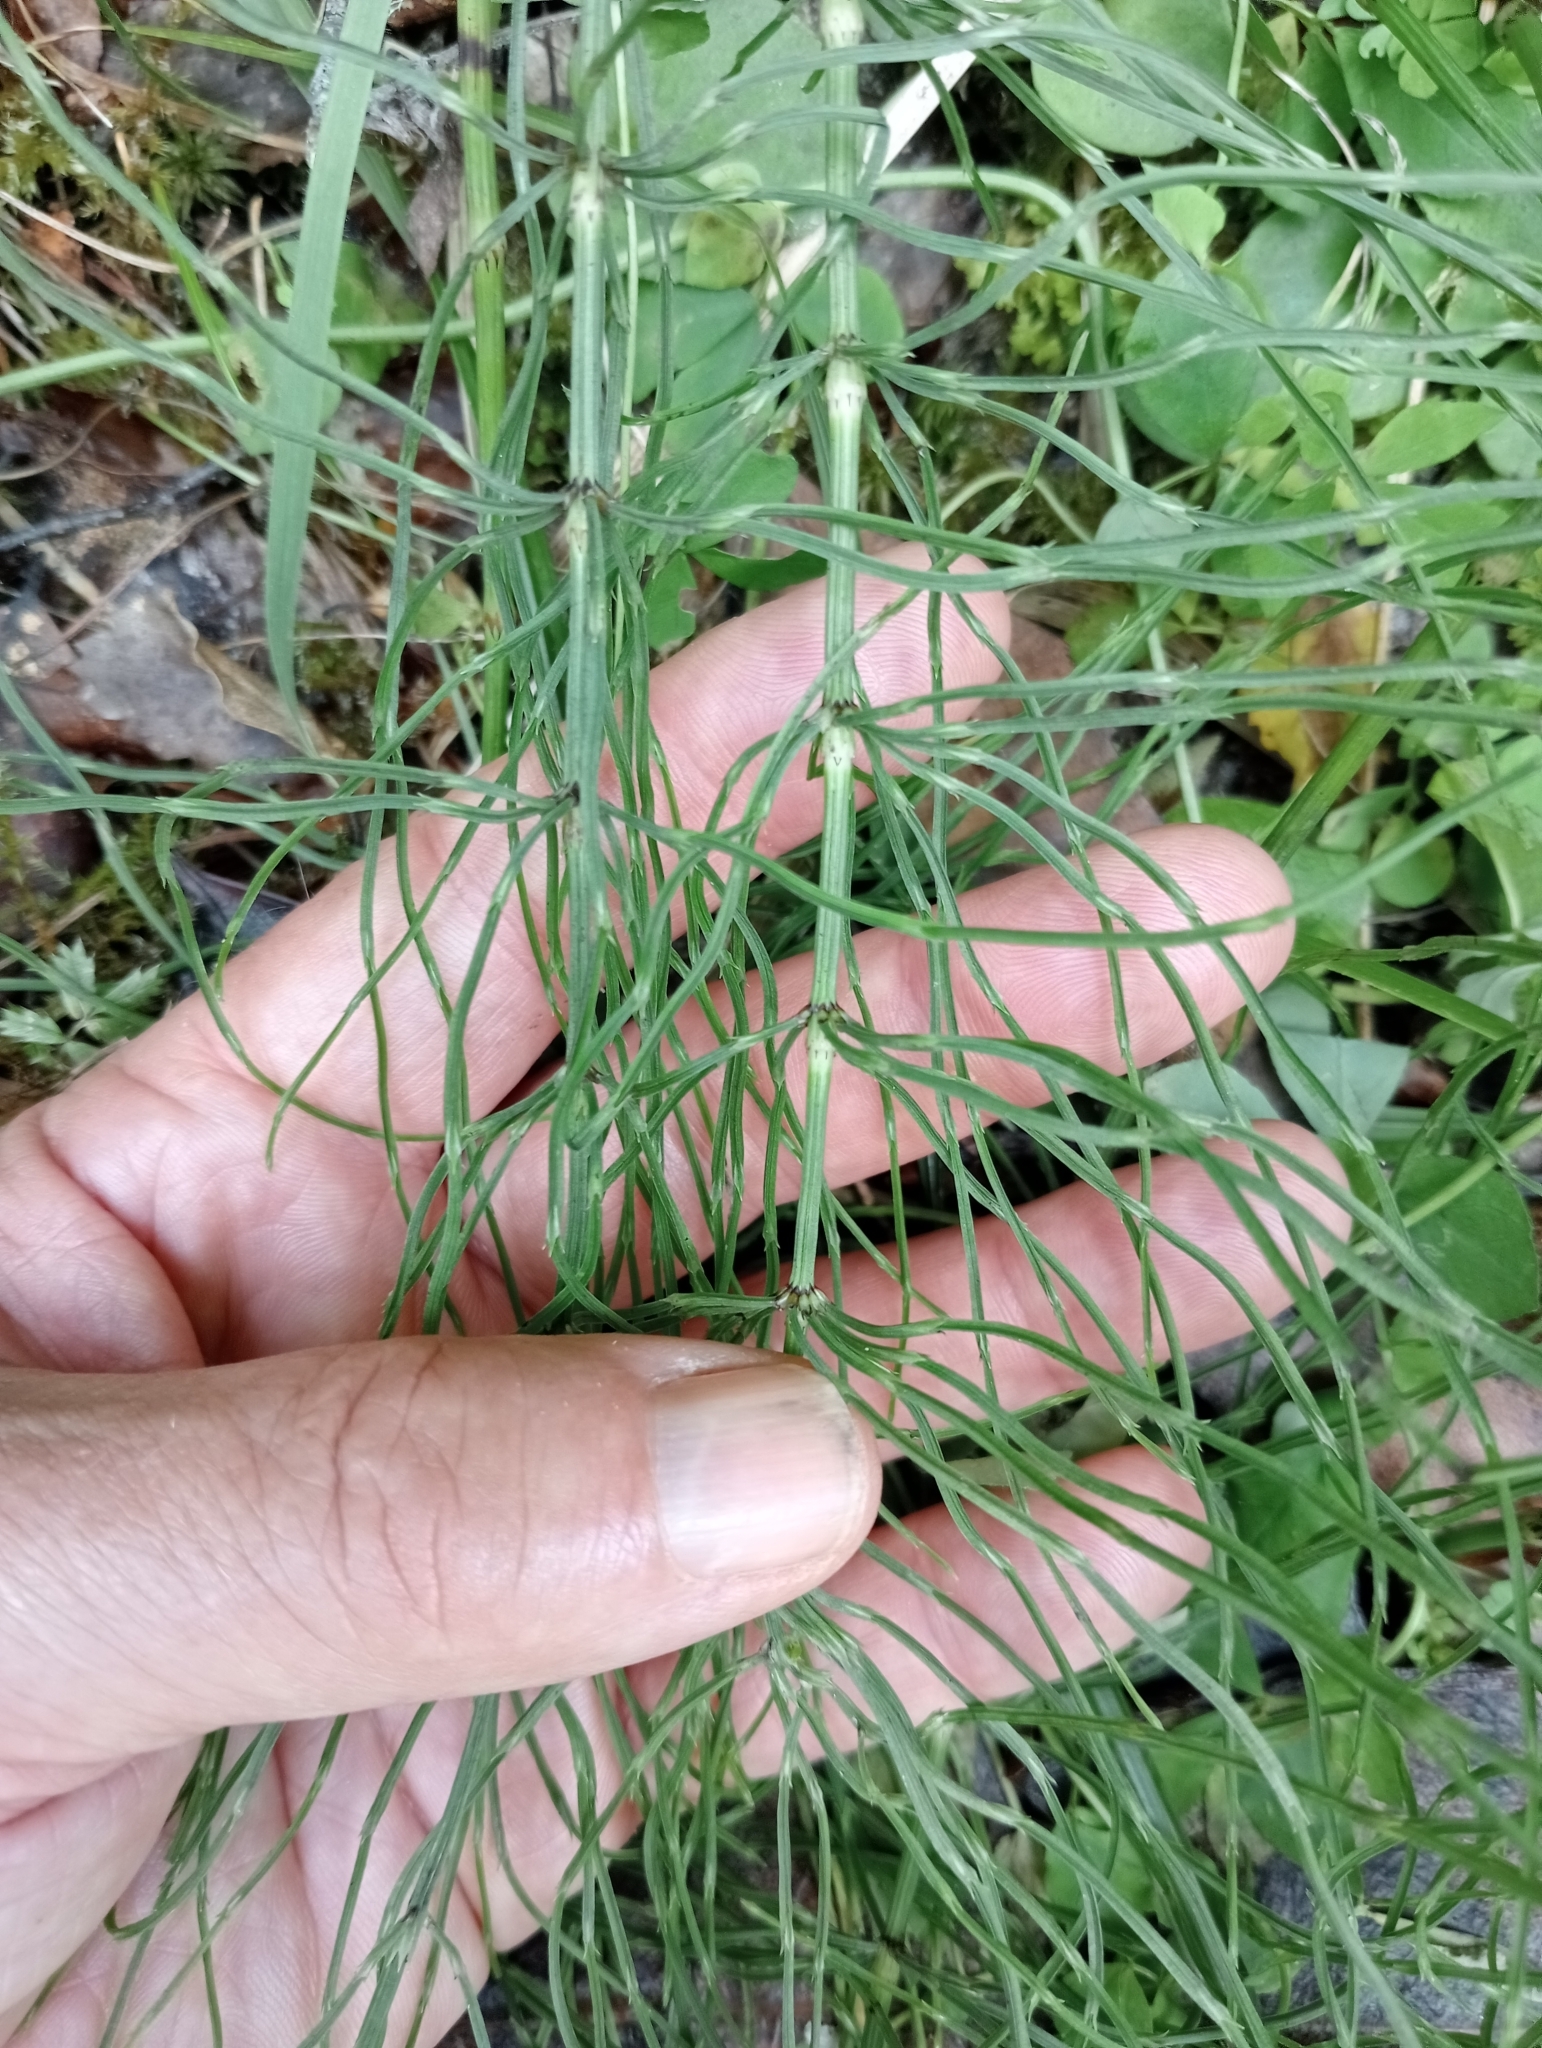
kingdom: Plantae
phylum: Tracheophyta
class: Polypodiopsida
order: Equisetales
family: Equisetaceae
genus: Equisetum
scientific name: Equisetum arvense
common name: Field horsetail
